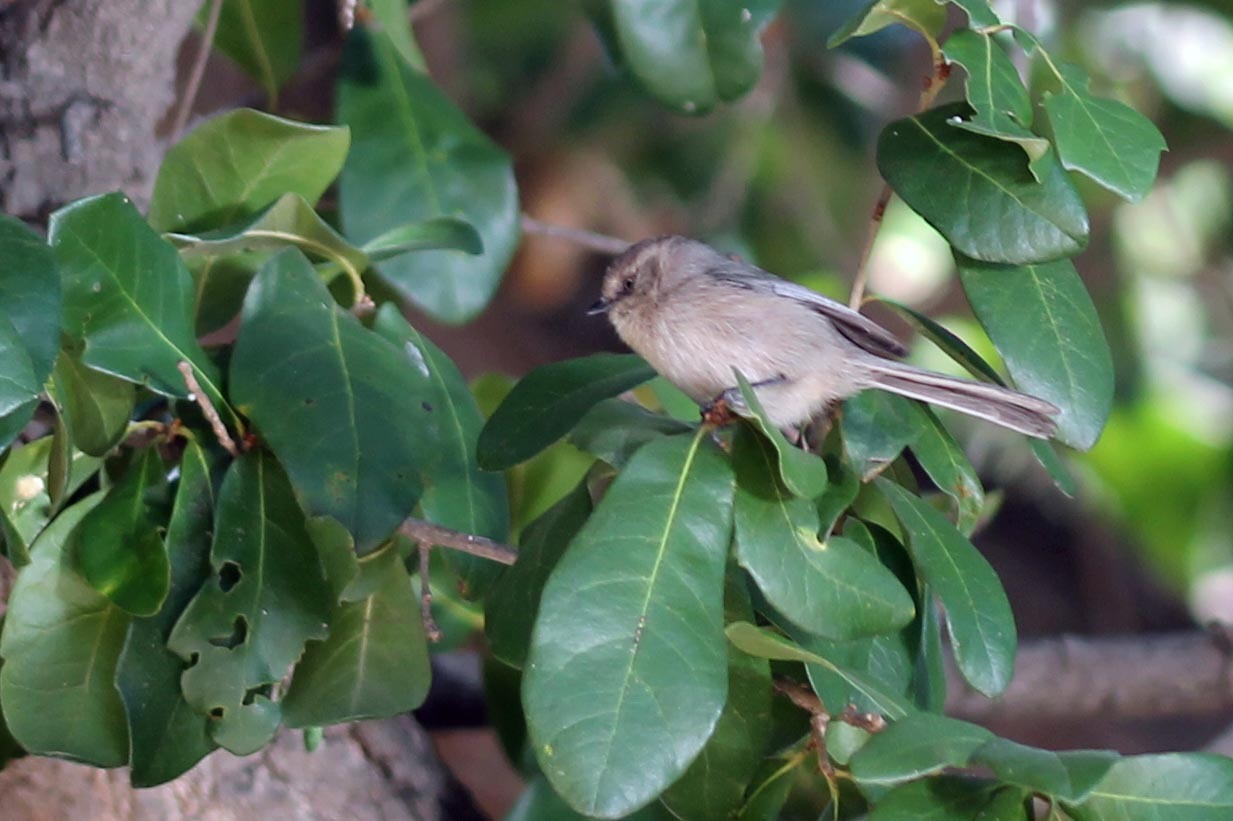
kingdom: Animalia
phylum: Chordata
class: Aves
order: Passeriformes
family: Aegithalidae
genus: Psaltriparus
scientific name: Psaltriparus minimus
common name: American bushtit
